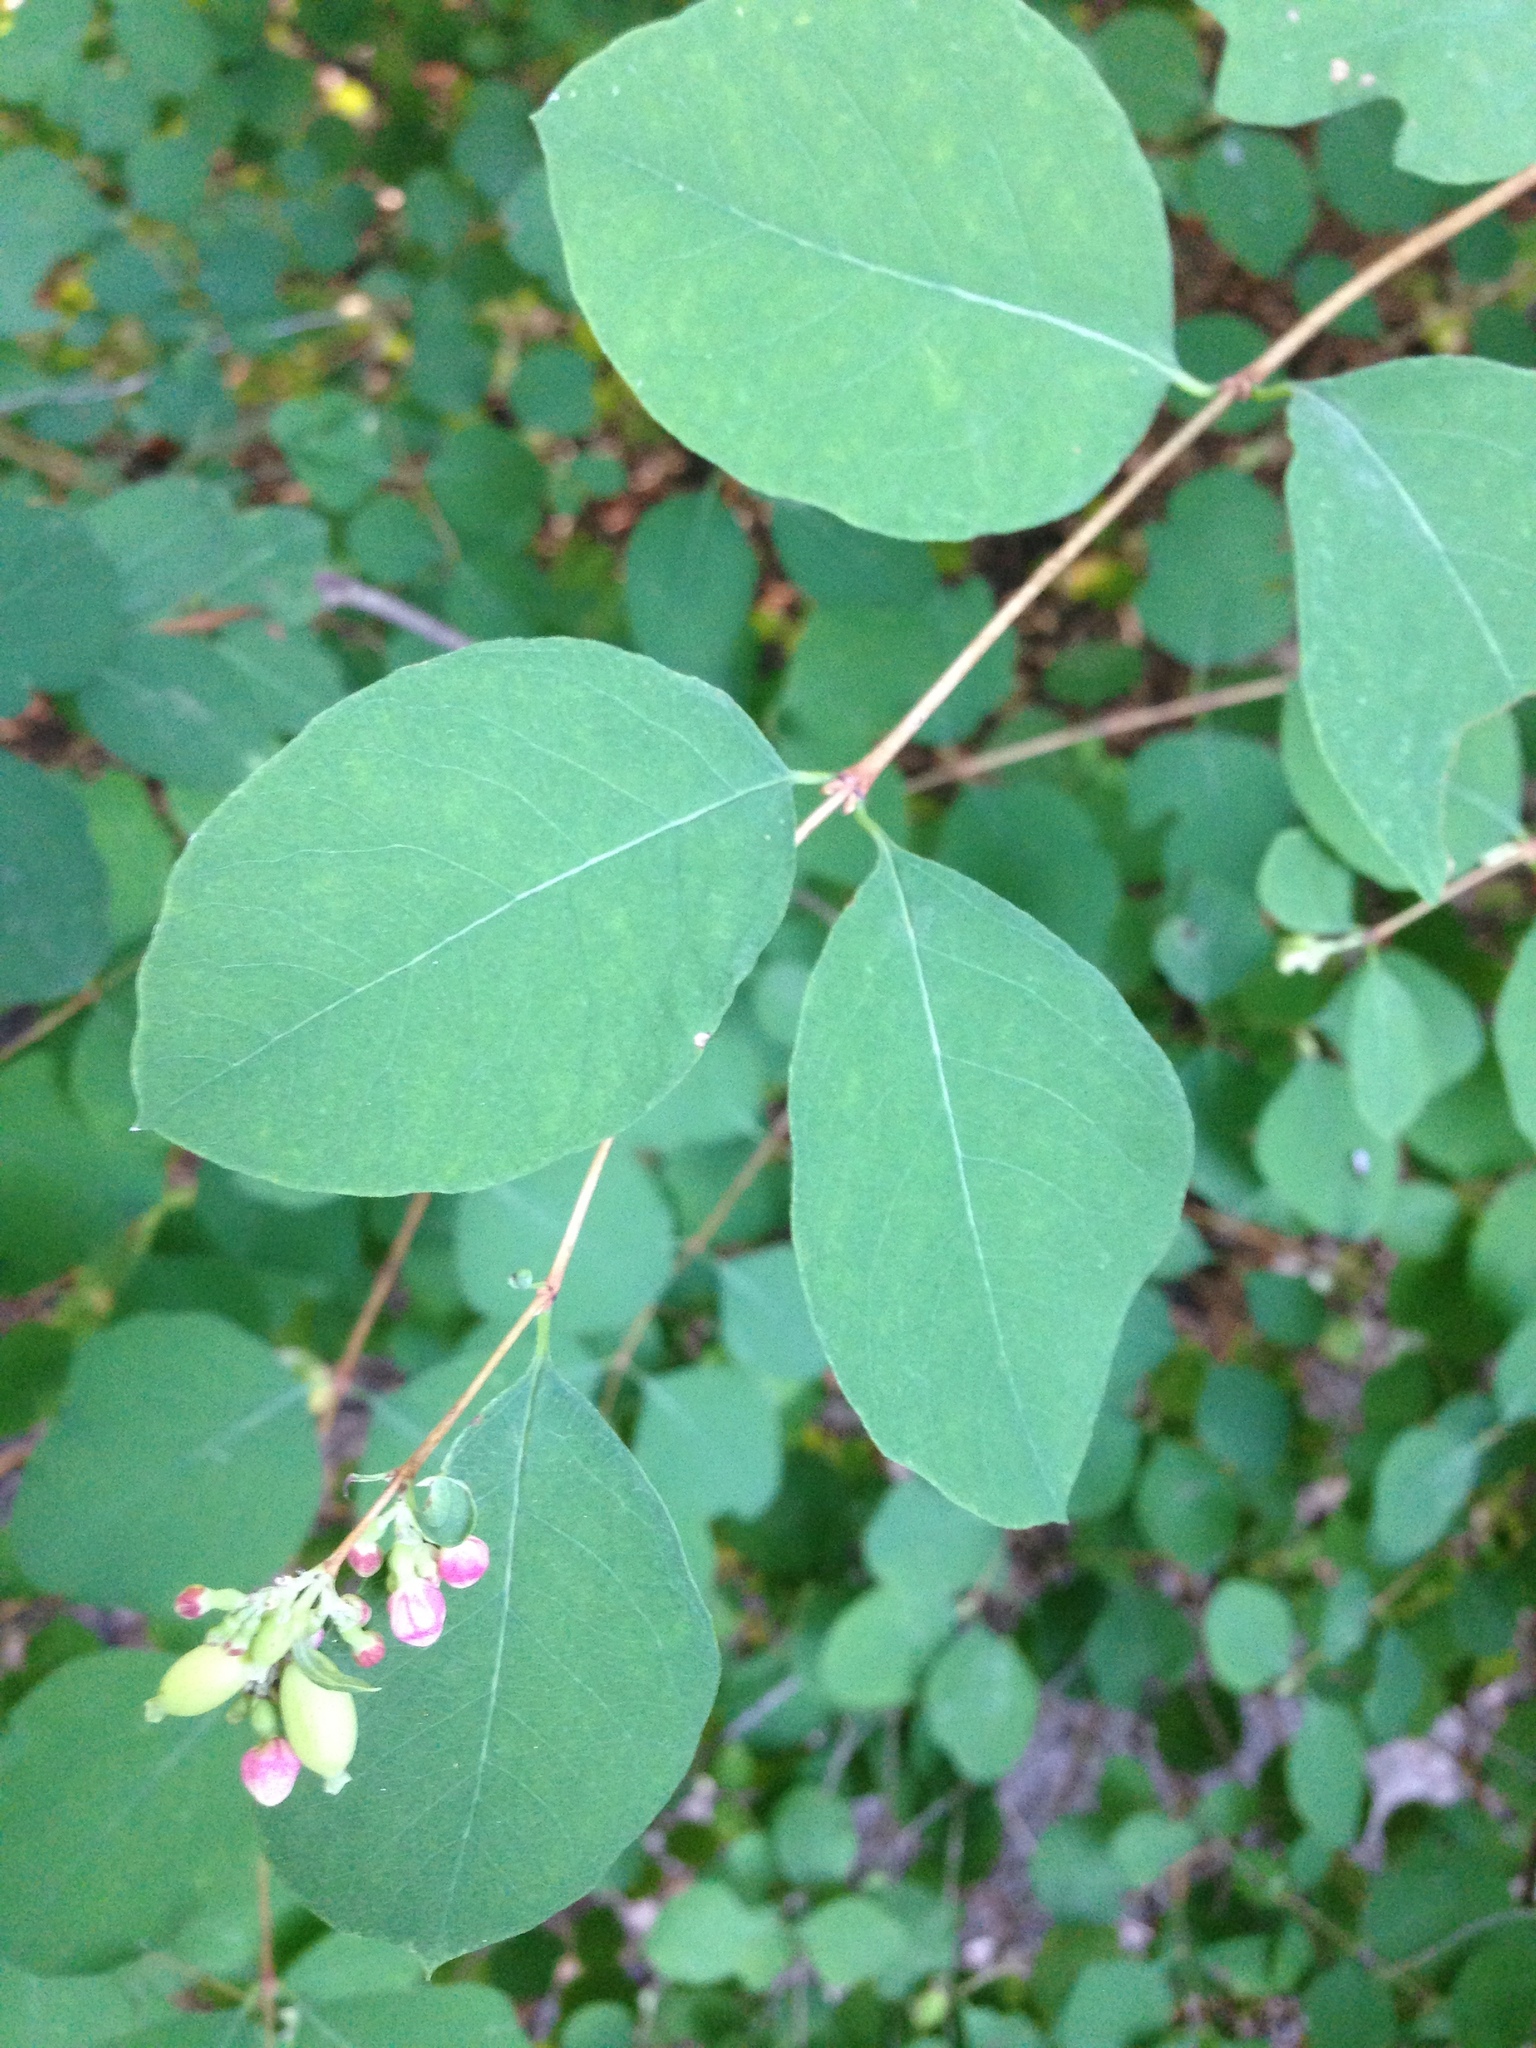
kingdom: Plantae
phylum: Tracheophyta
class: Magnoliopsida
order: Dipsacales
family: Caprifoliaceae
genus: Symphoricarpos
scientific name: Symphoricarpos albus
